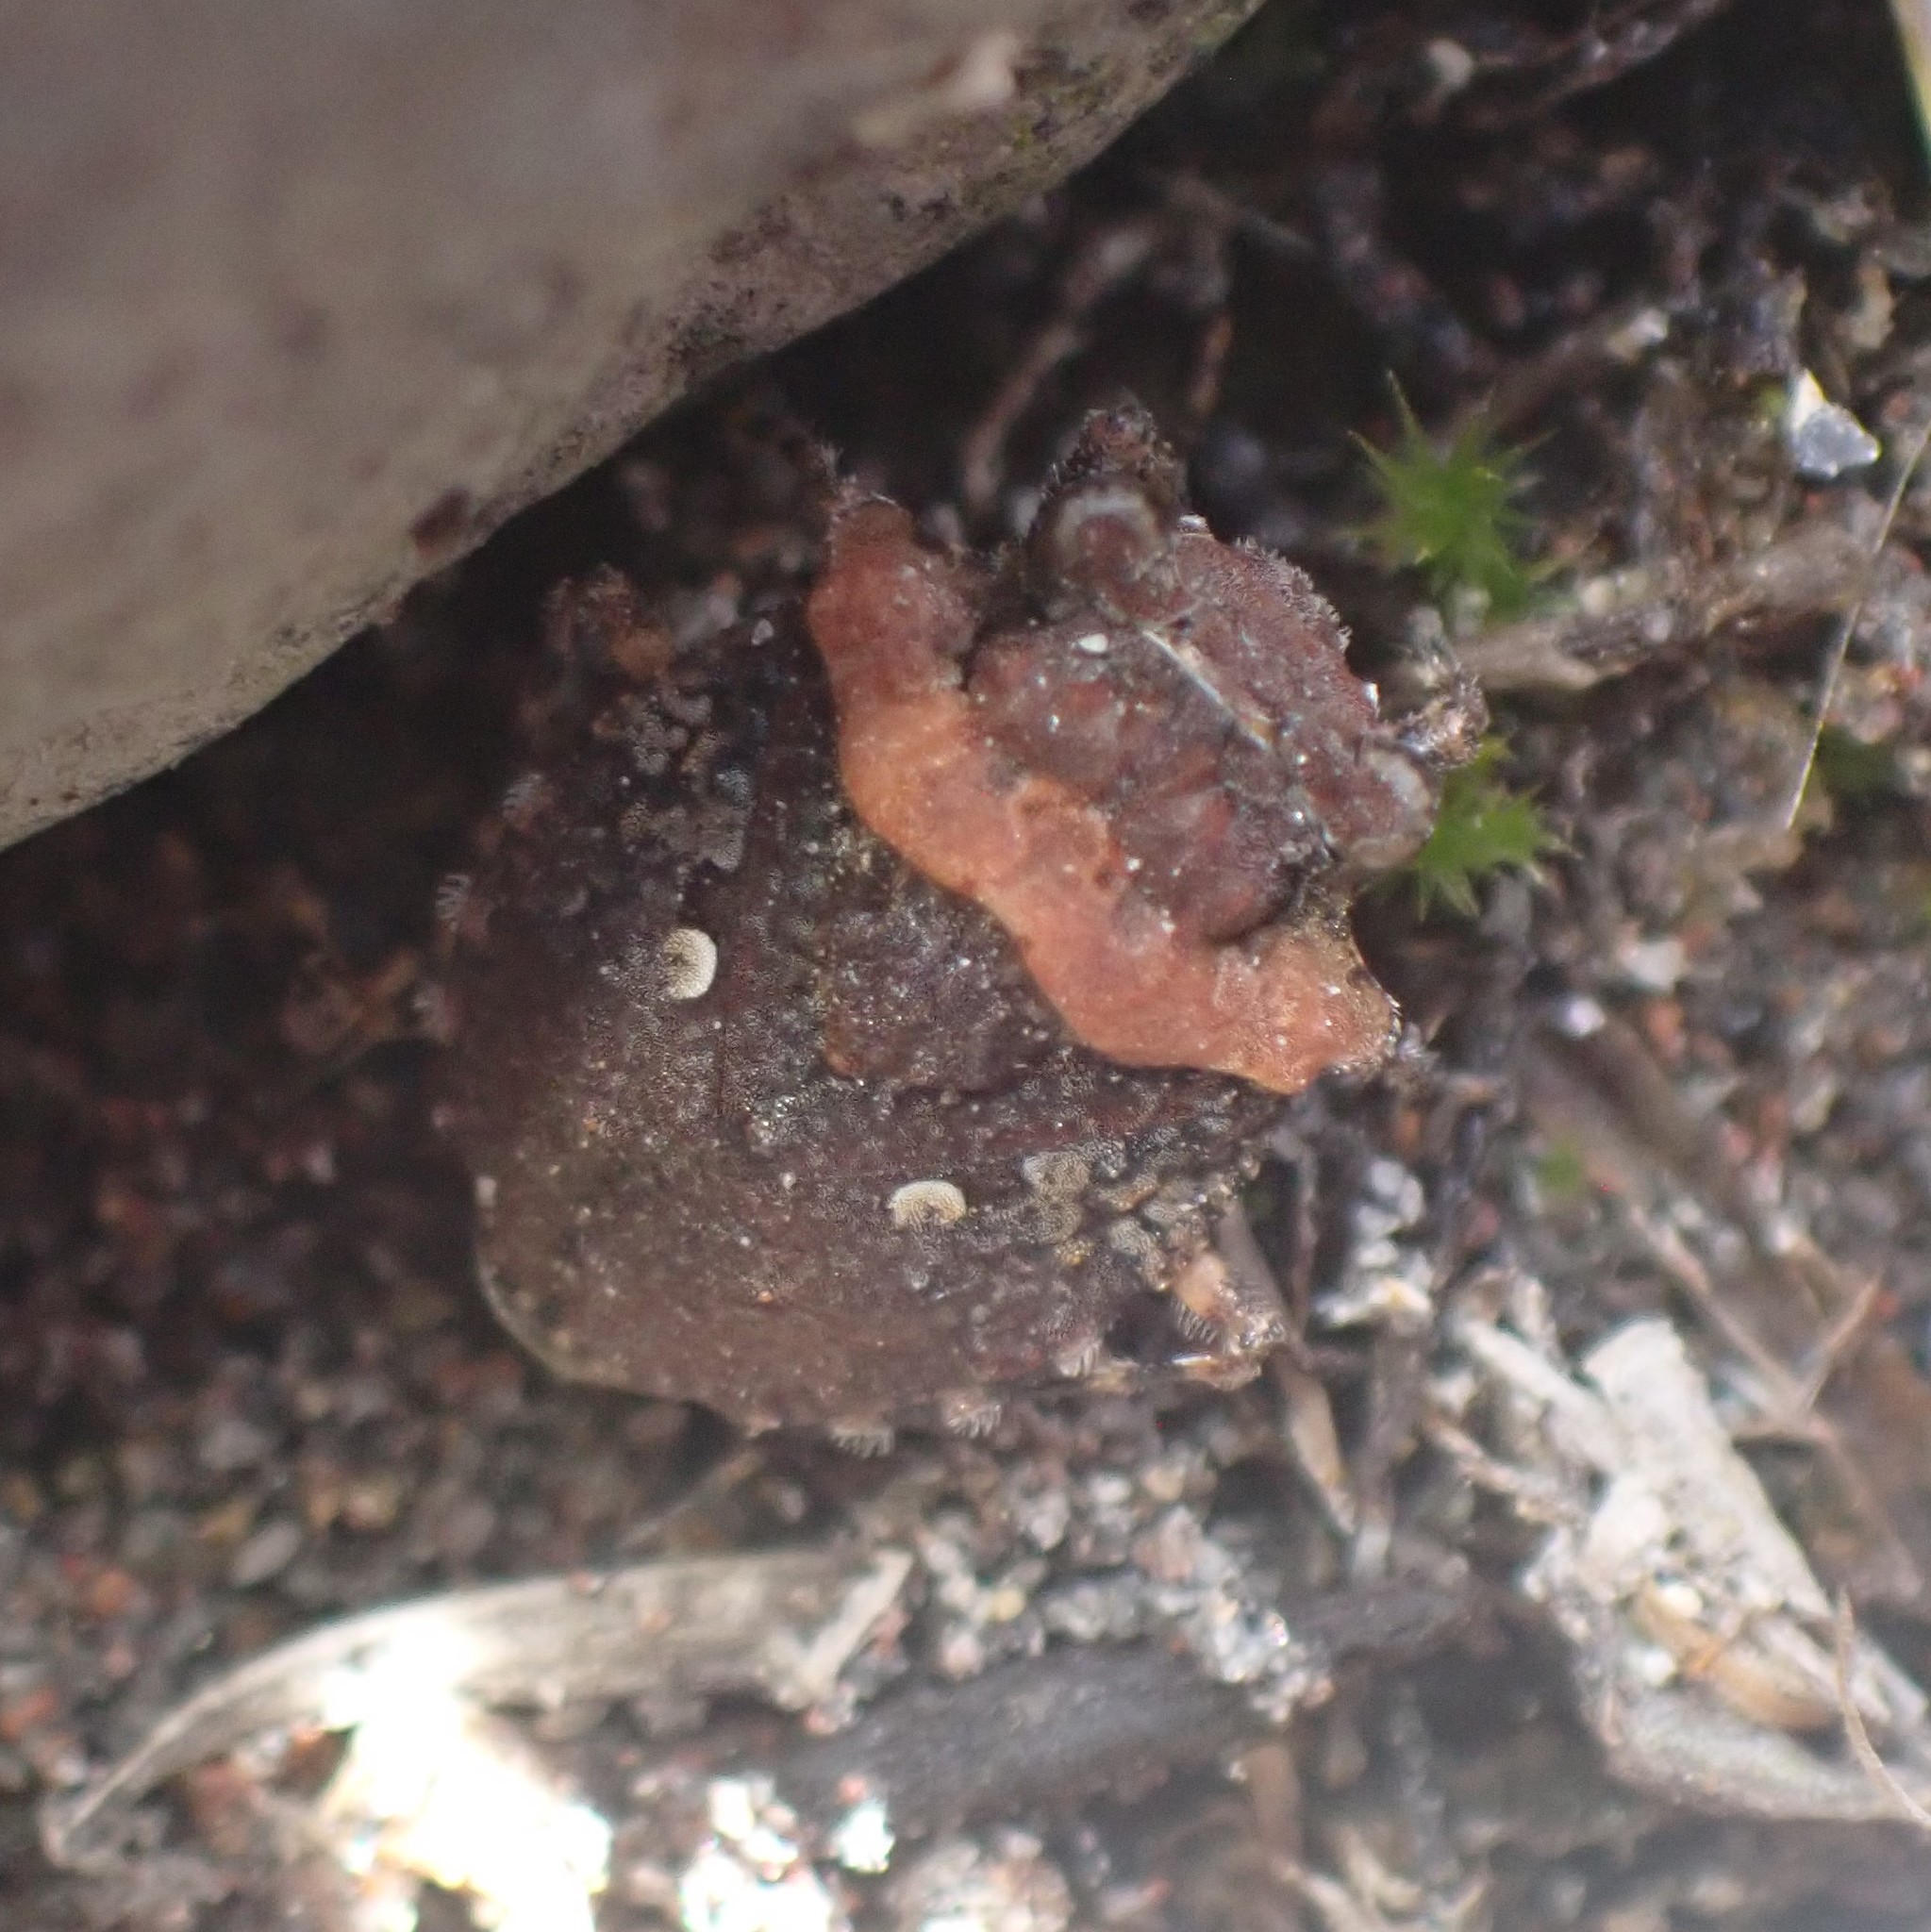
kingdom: Animalia
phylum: Arthropoda
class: Insecta
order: Hemiptera
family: Gelastocoridae
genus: Gelastocoris
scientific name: Gelastocoris oculatus
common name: Toad bug
